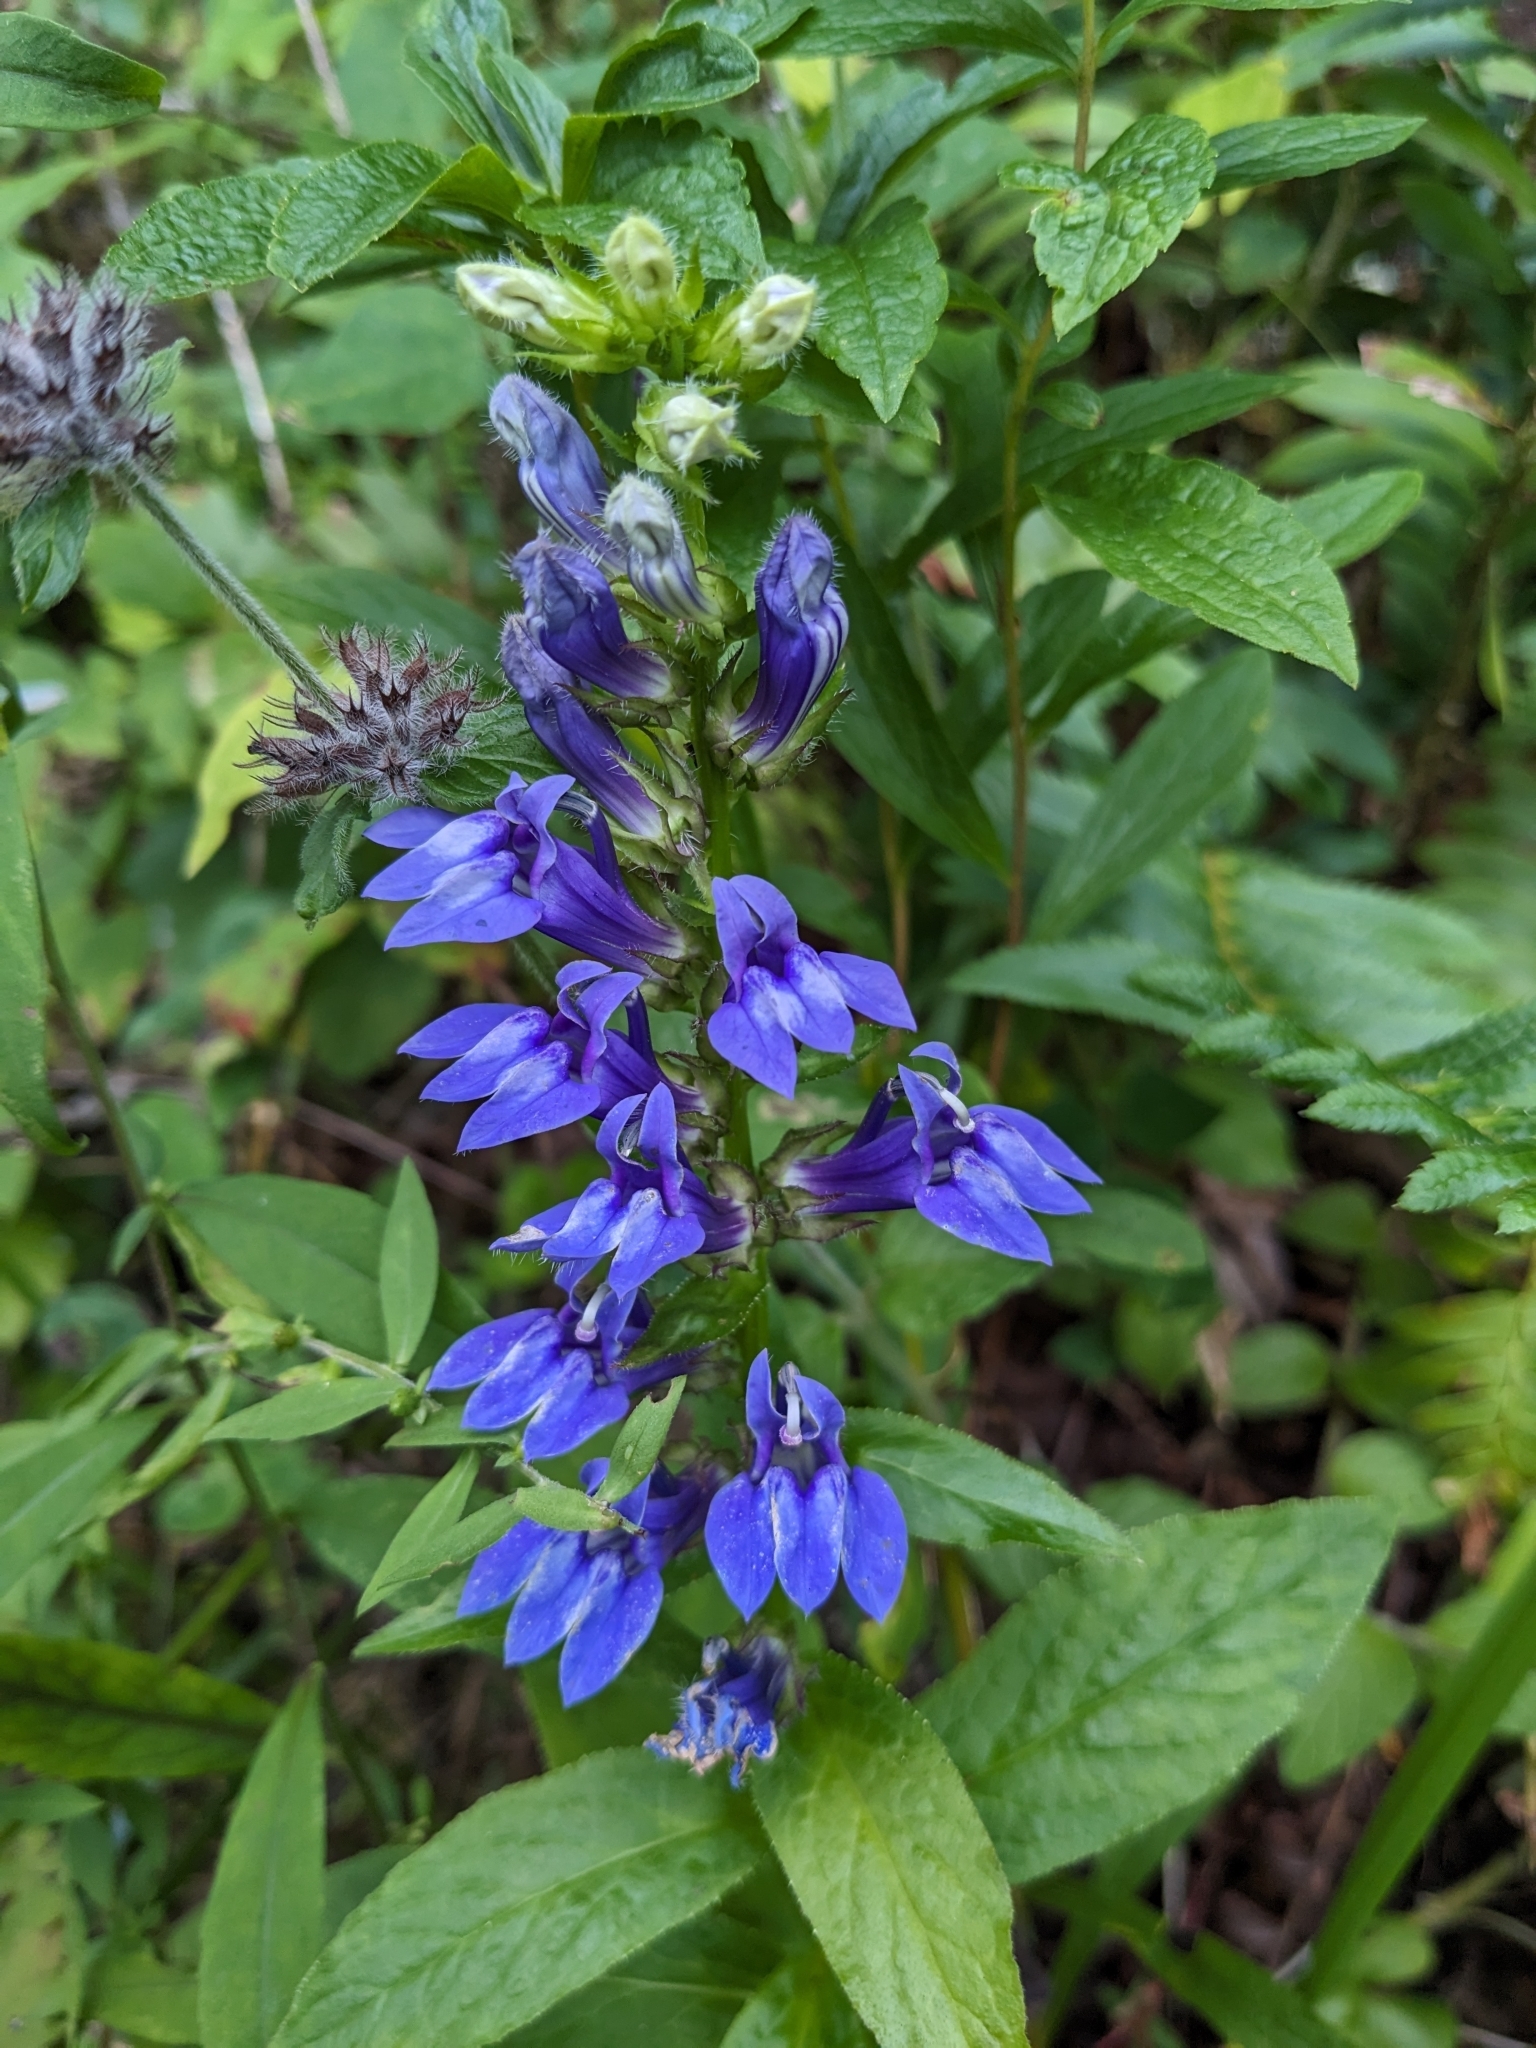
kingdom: Plantae
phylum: Tracheophyta
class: Magnoliopsida
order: Asterales
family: Campanulaceae
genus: Lobelia
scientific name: Lobelia siphilitica
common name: Great lobelia
